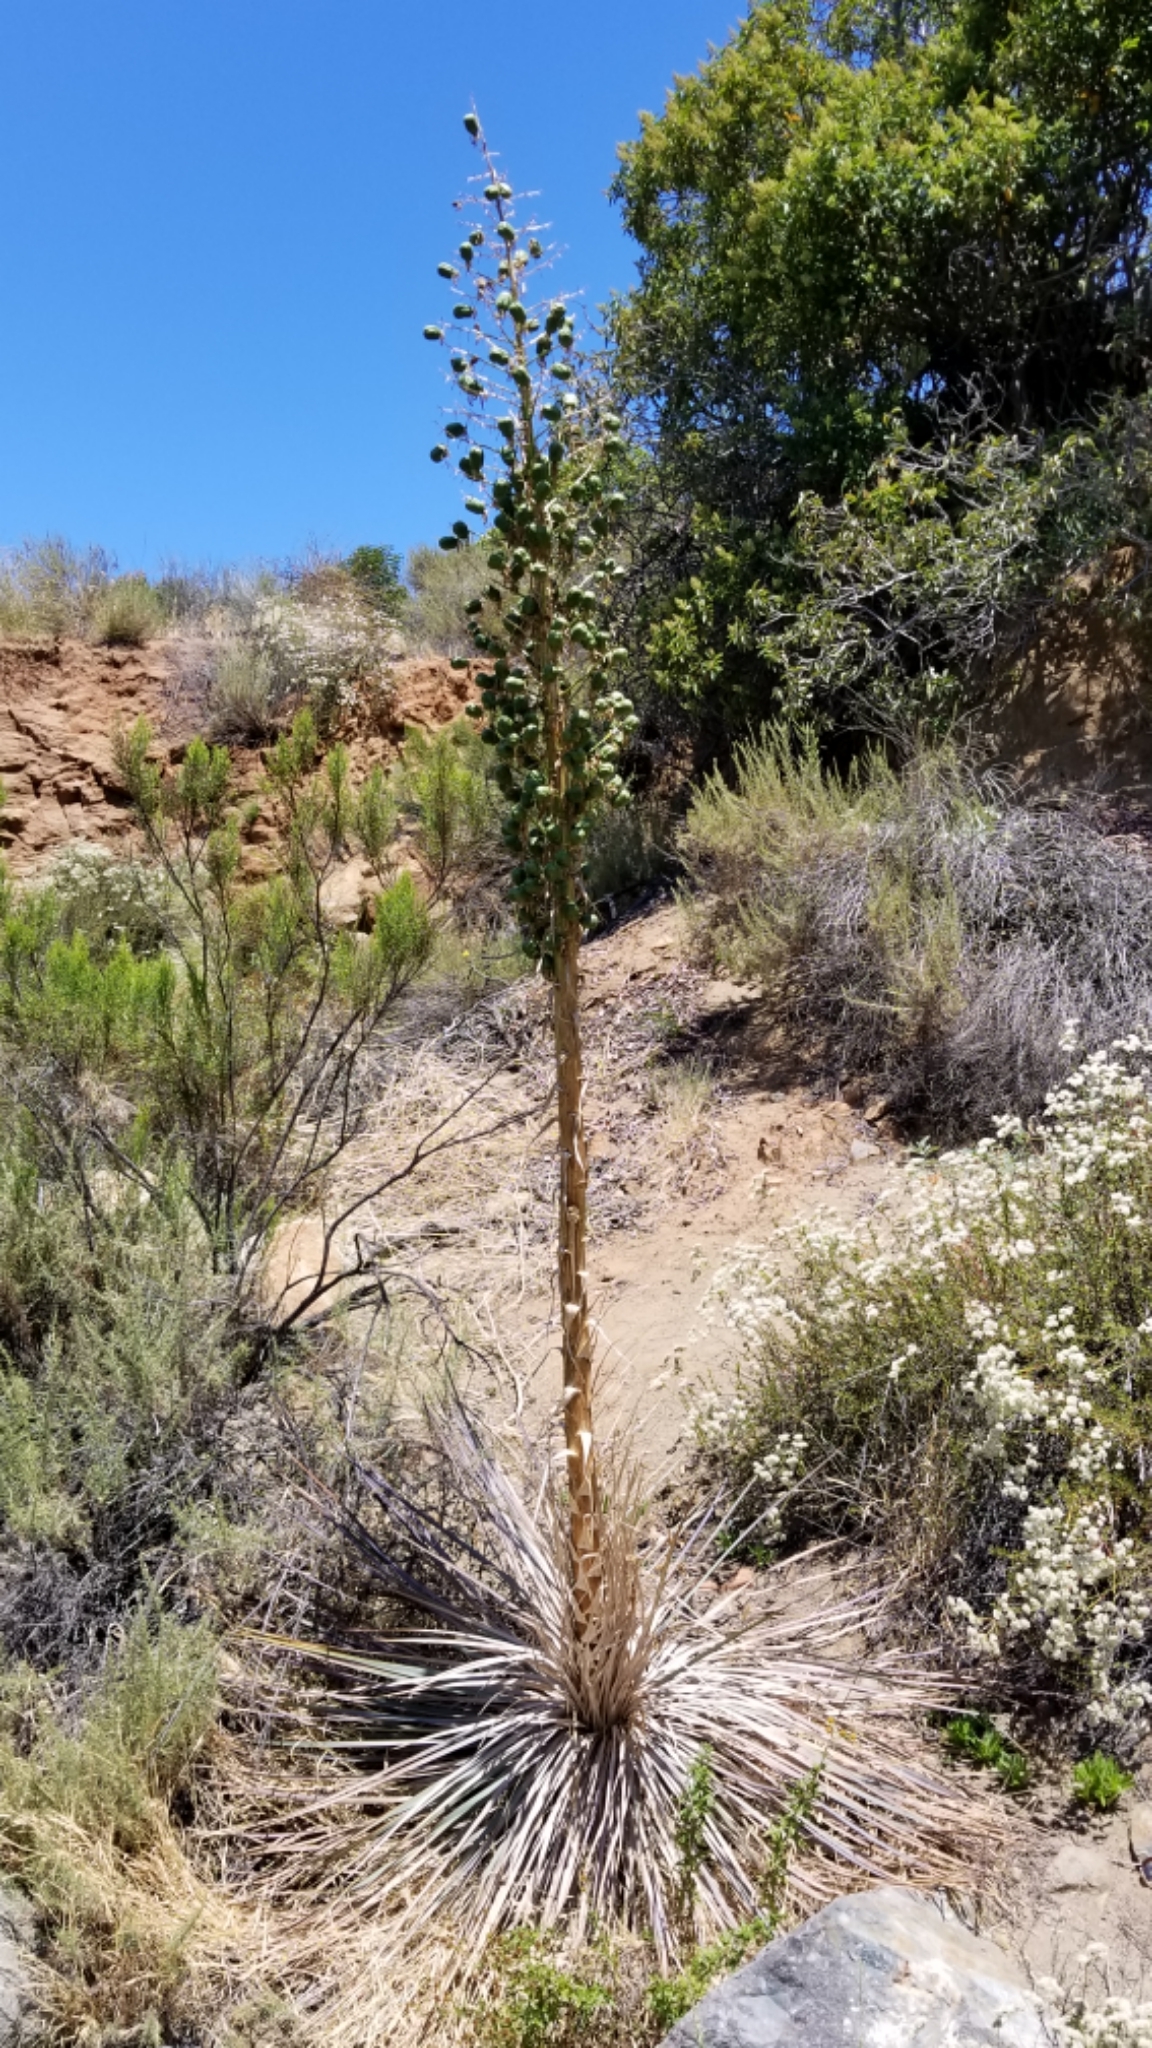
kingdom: Plantae
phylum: Tracheophyta
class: Liliopsida
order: Asparagales
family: Asparagaceae
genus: Hesperoyucca
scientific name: Hesperoyucca whipplei
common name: Our lord's-candle
